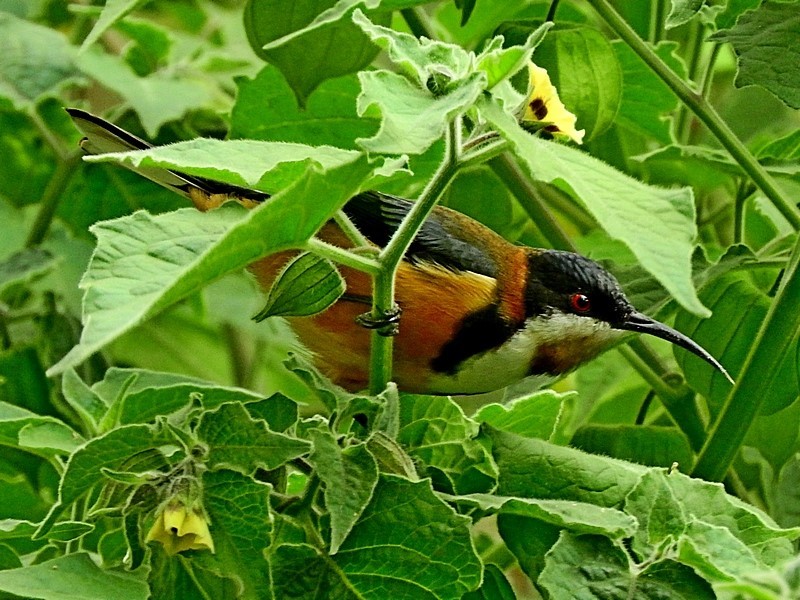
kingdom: Animalia
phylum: Chordata
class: Aves
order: Passeriformes
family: Meliphagidae
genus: Acanthorhynchus
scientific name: Acanthorhynchus tenuirostris
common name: Eastern spinebill
